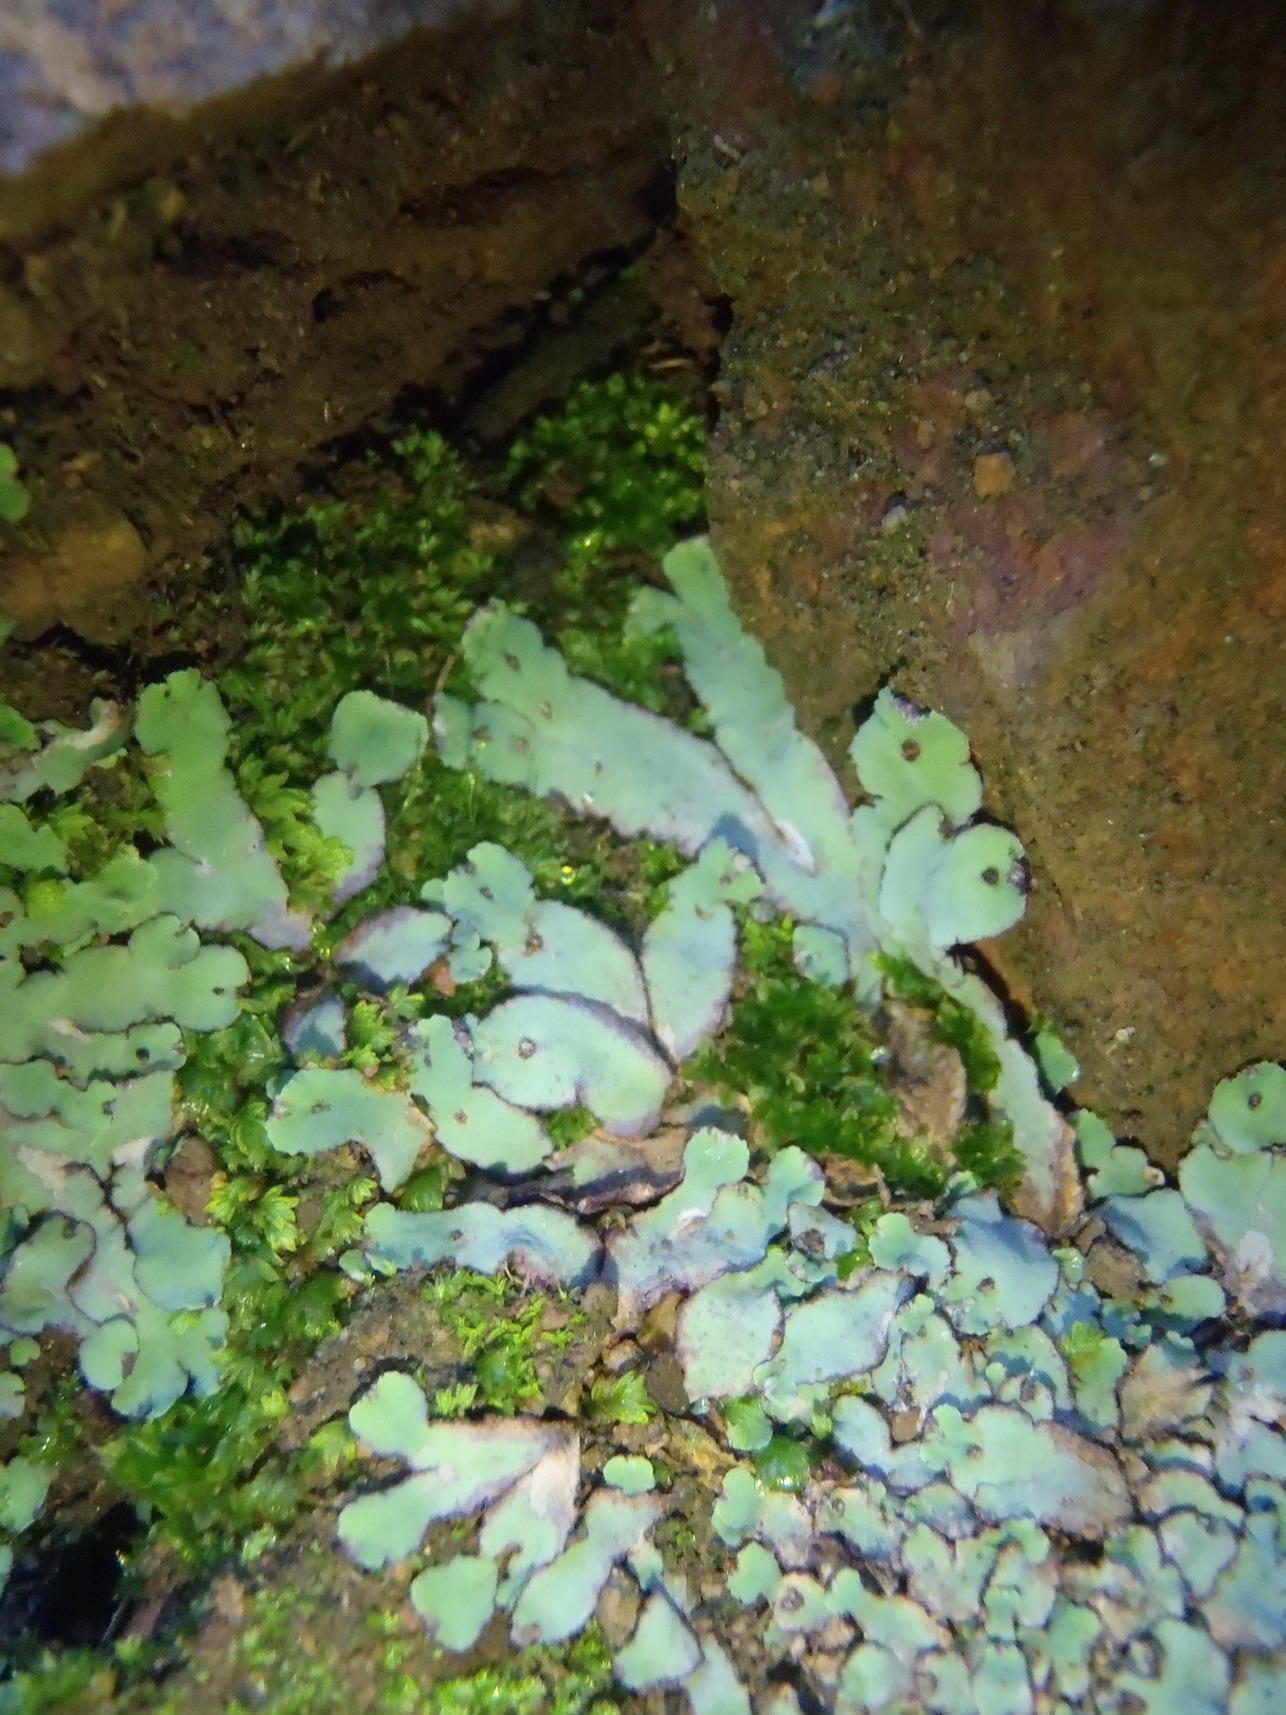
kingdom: Plantae
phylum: Marchantiophyta
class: Marchantiopsida
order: Marchantiales
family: Aytoniaceae
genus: Plagiochasma
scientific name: Plagiochasma rupestre
